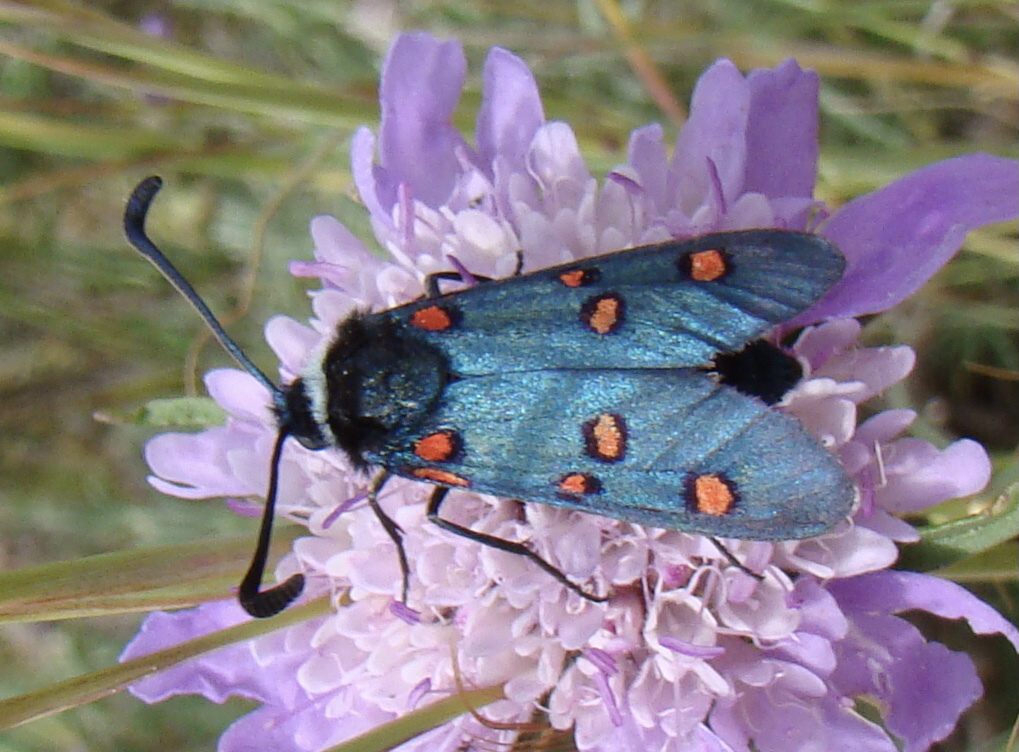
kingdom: Animalia
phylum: Arthropoda
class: Insecta
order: Lepidoptera
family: Zygaenidae
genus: Zygaena
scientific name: Zygaena lavandulae
